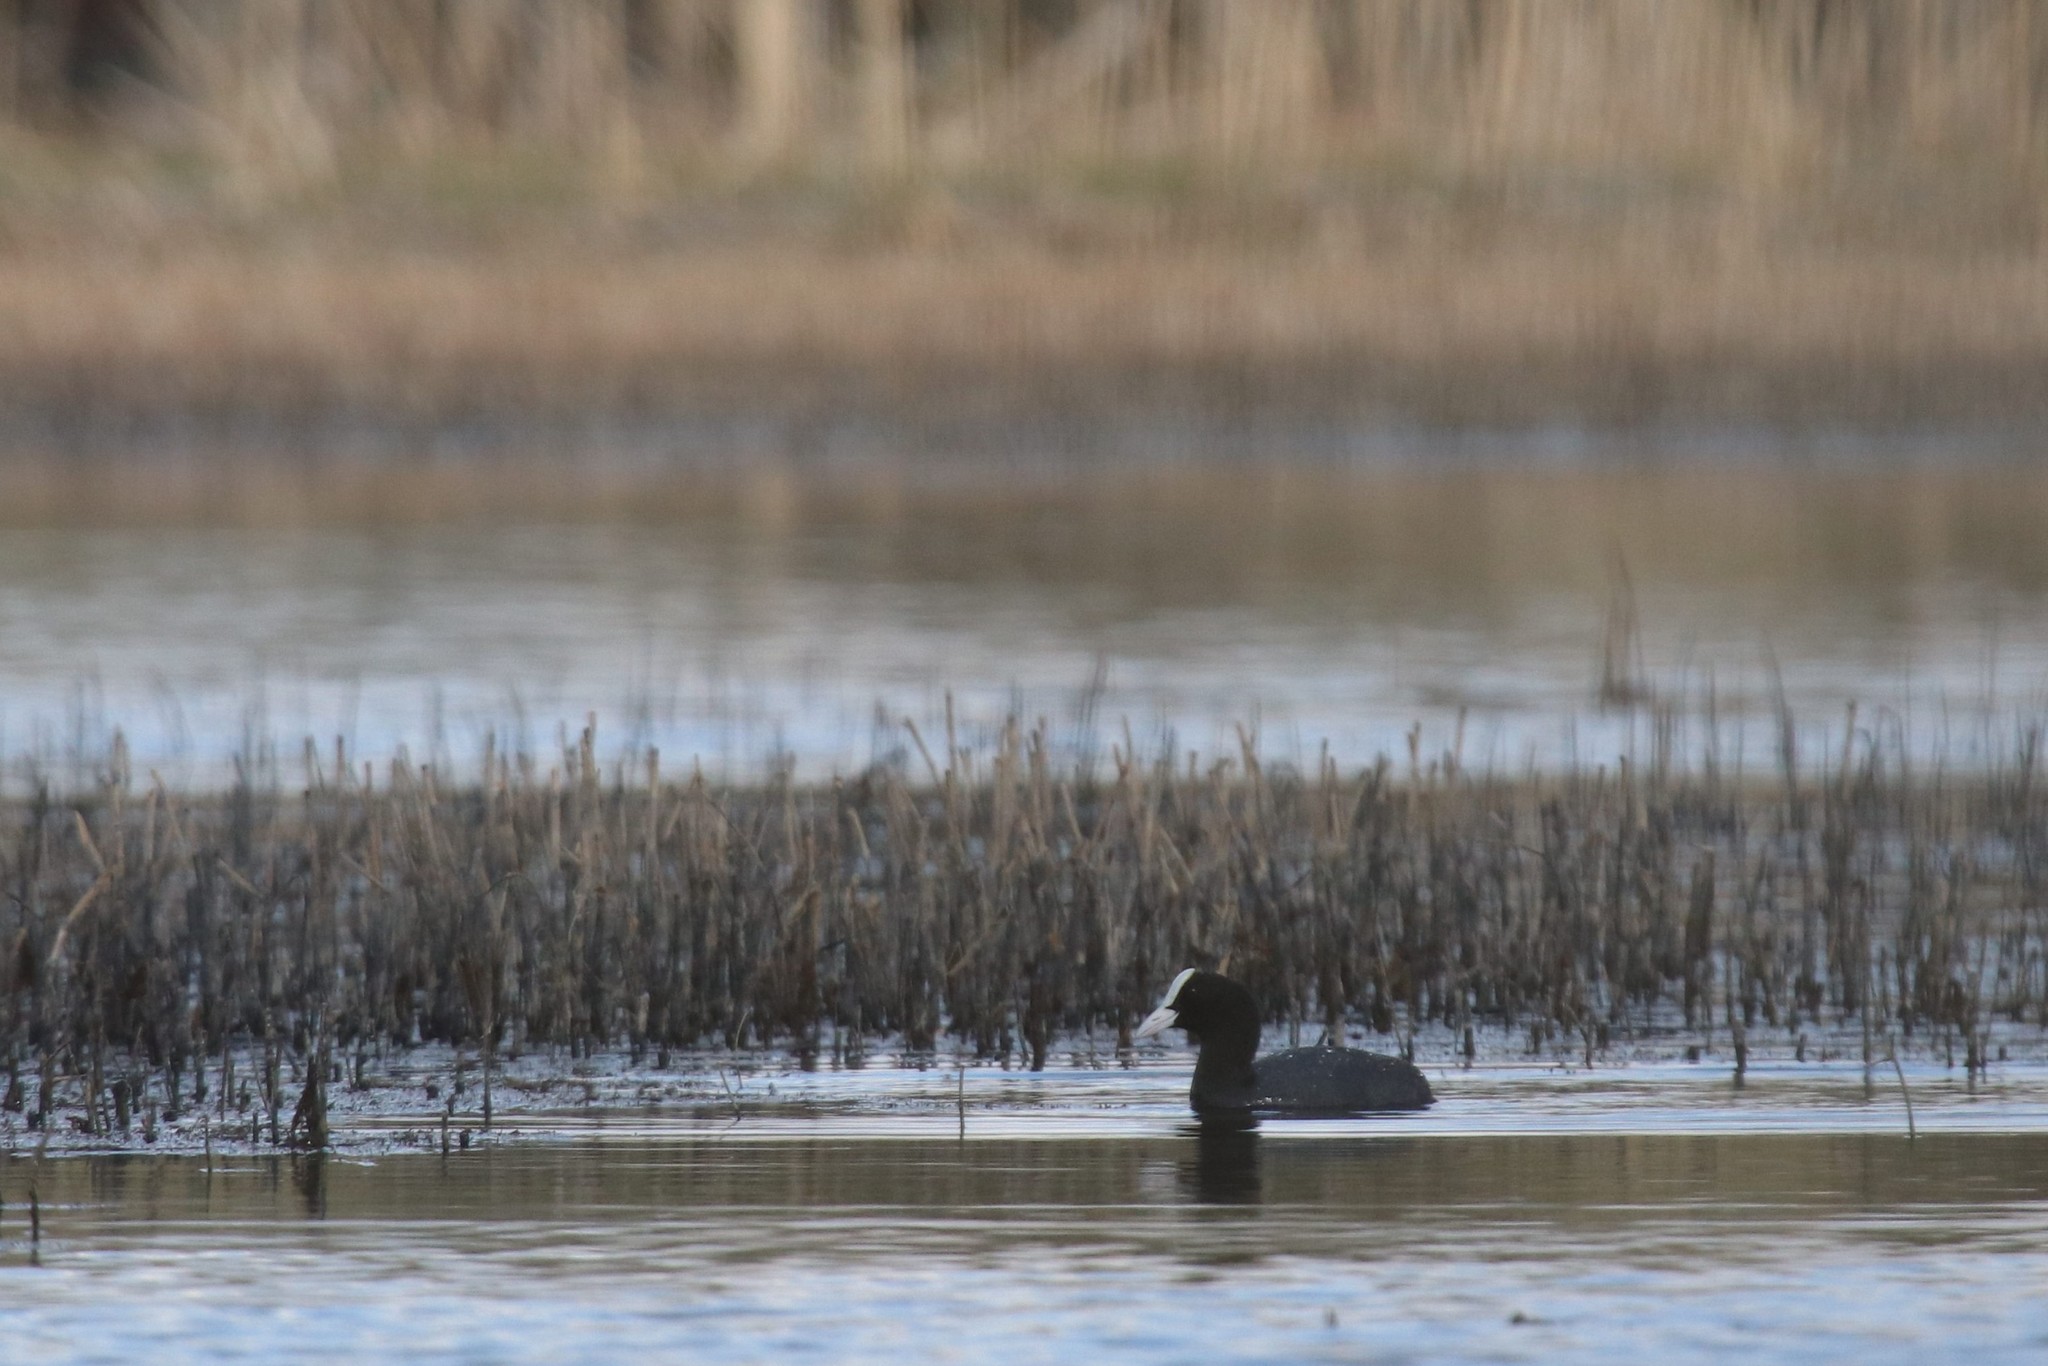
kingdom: Animalia
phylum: Chordata
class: Aves
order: Gruiformes
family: Rallidae
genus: Fulica
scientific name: Fulica atra
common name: Eurasian coot
